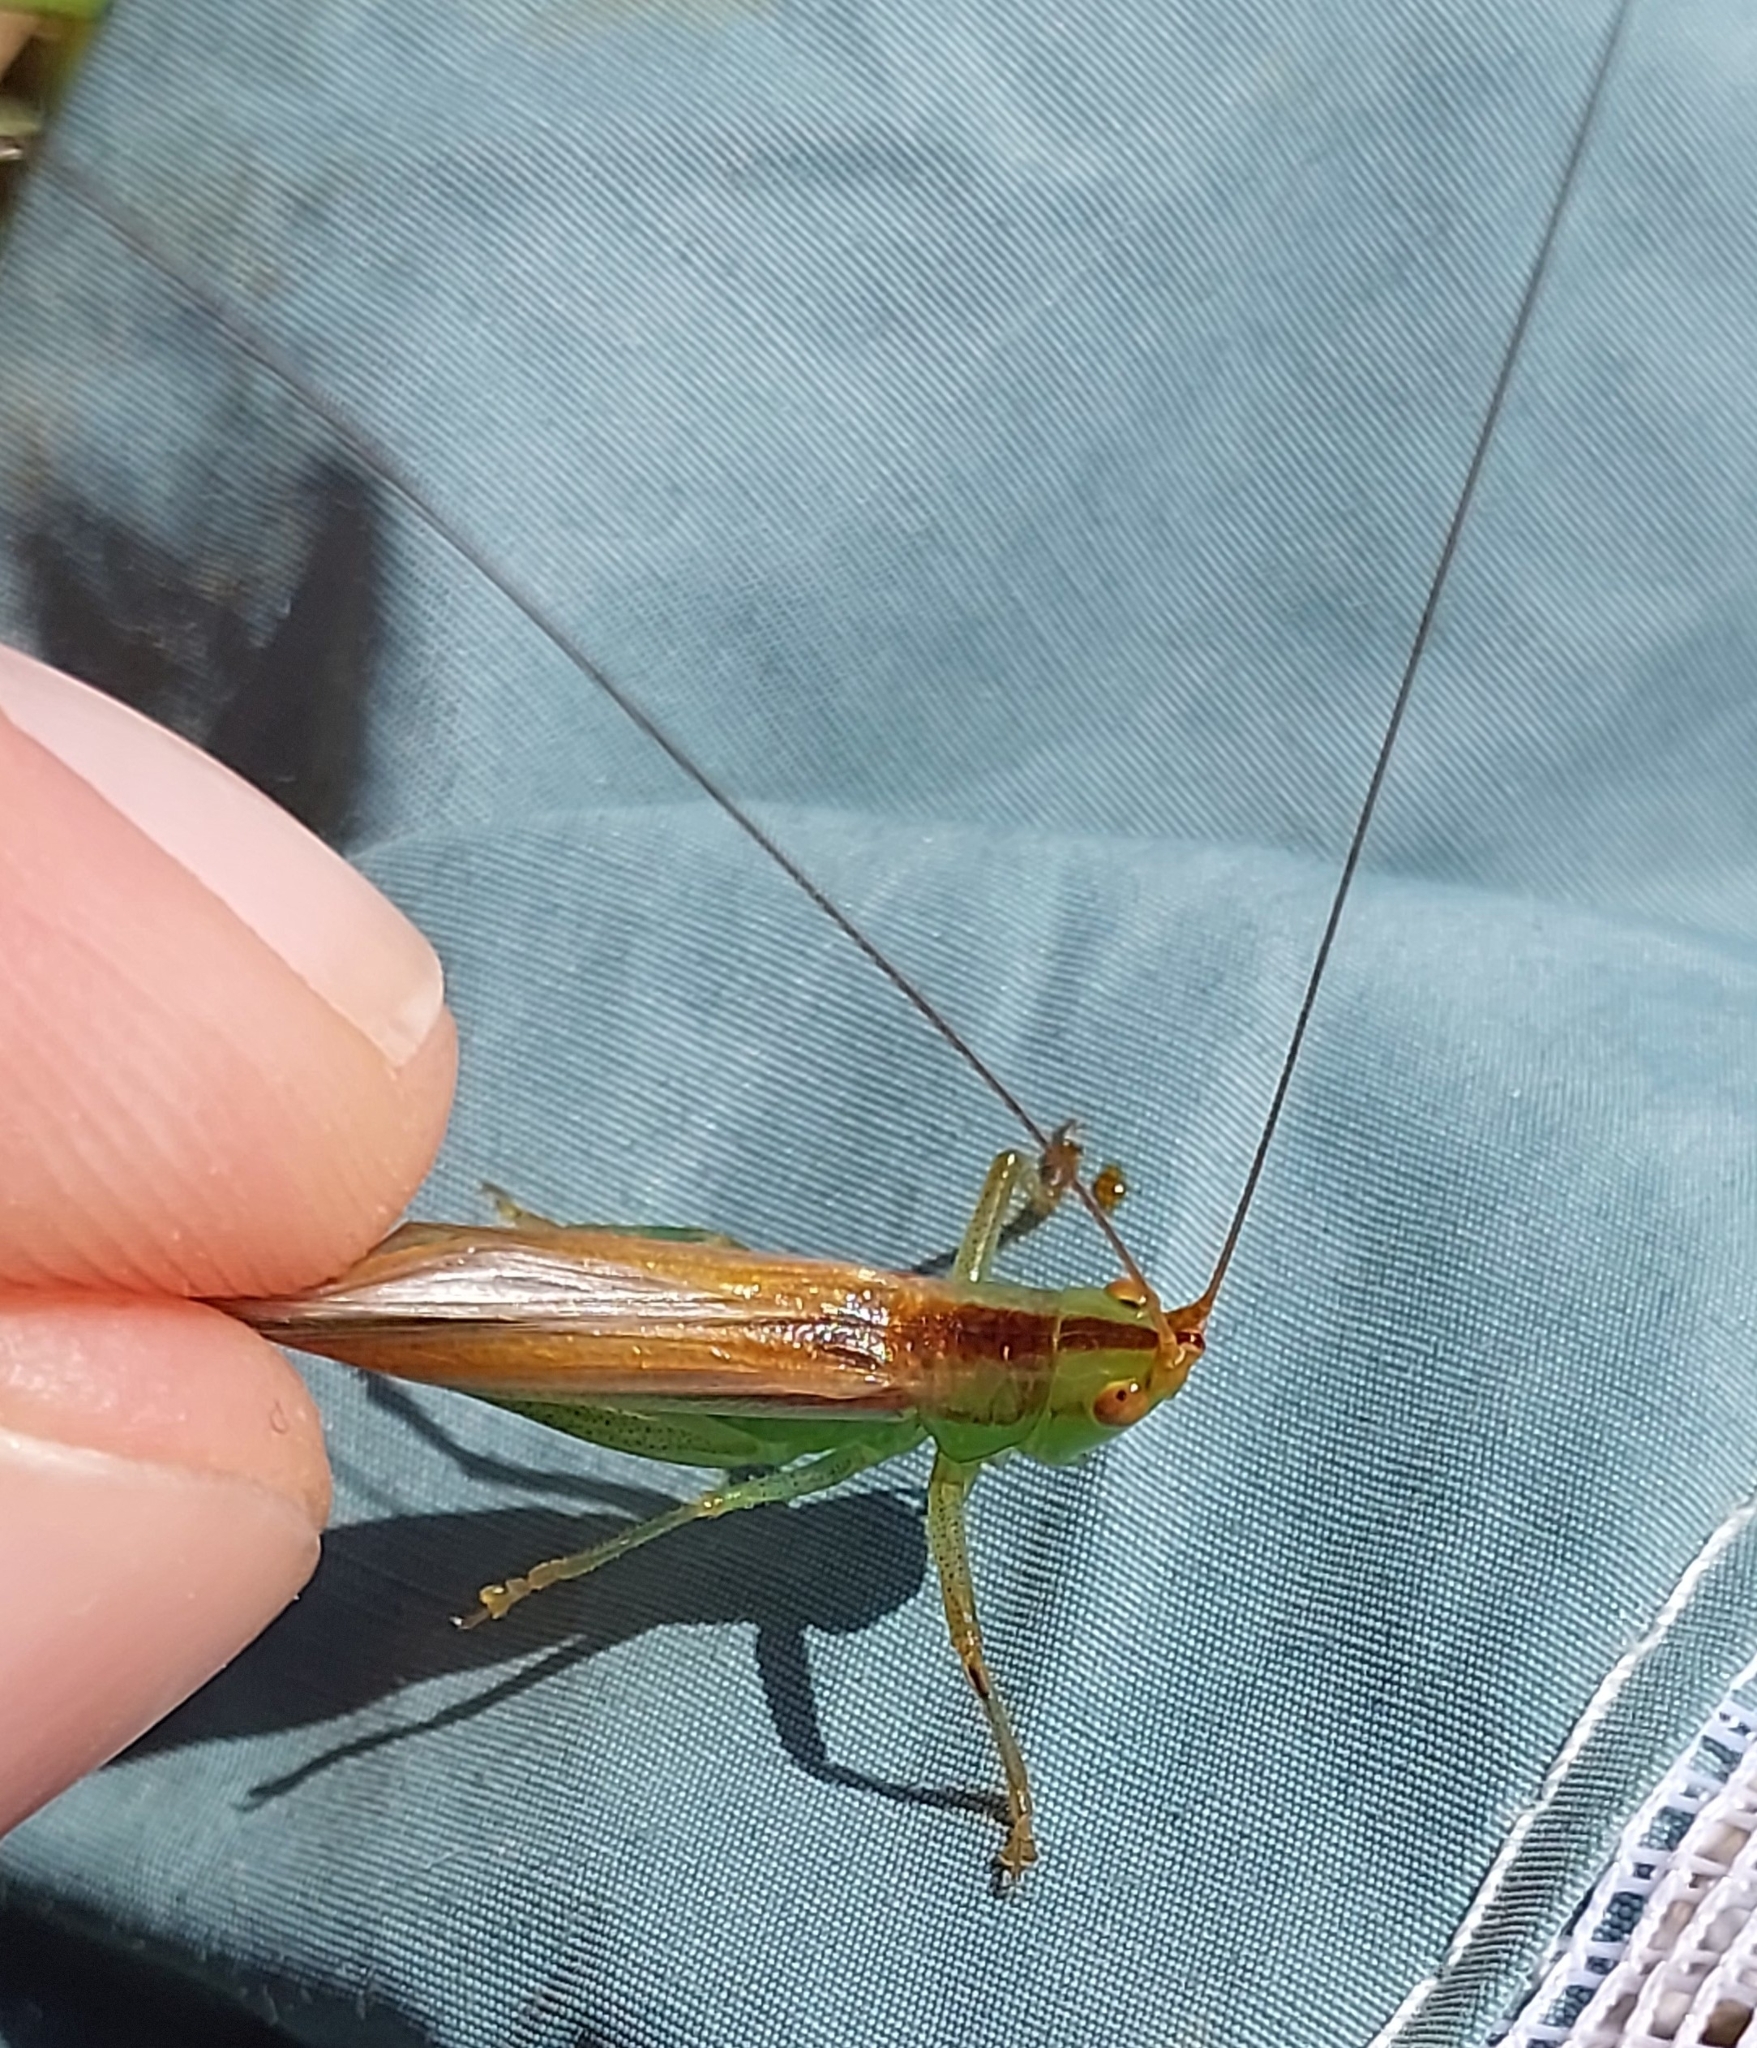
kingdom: Animalia
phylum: Arthropoda
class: Insecta
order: Orthoptera
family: Tettigoniidae
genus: Conocephalus
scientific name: Conocephalus conocephalus
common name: African meadow katydid
